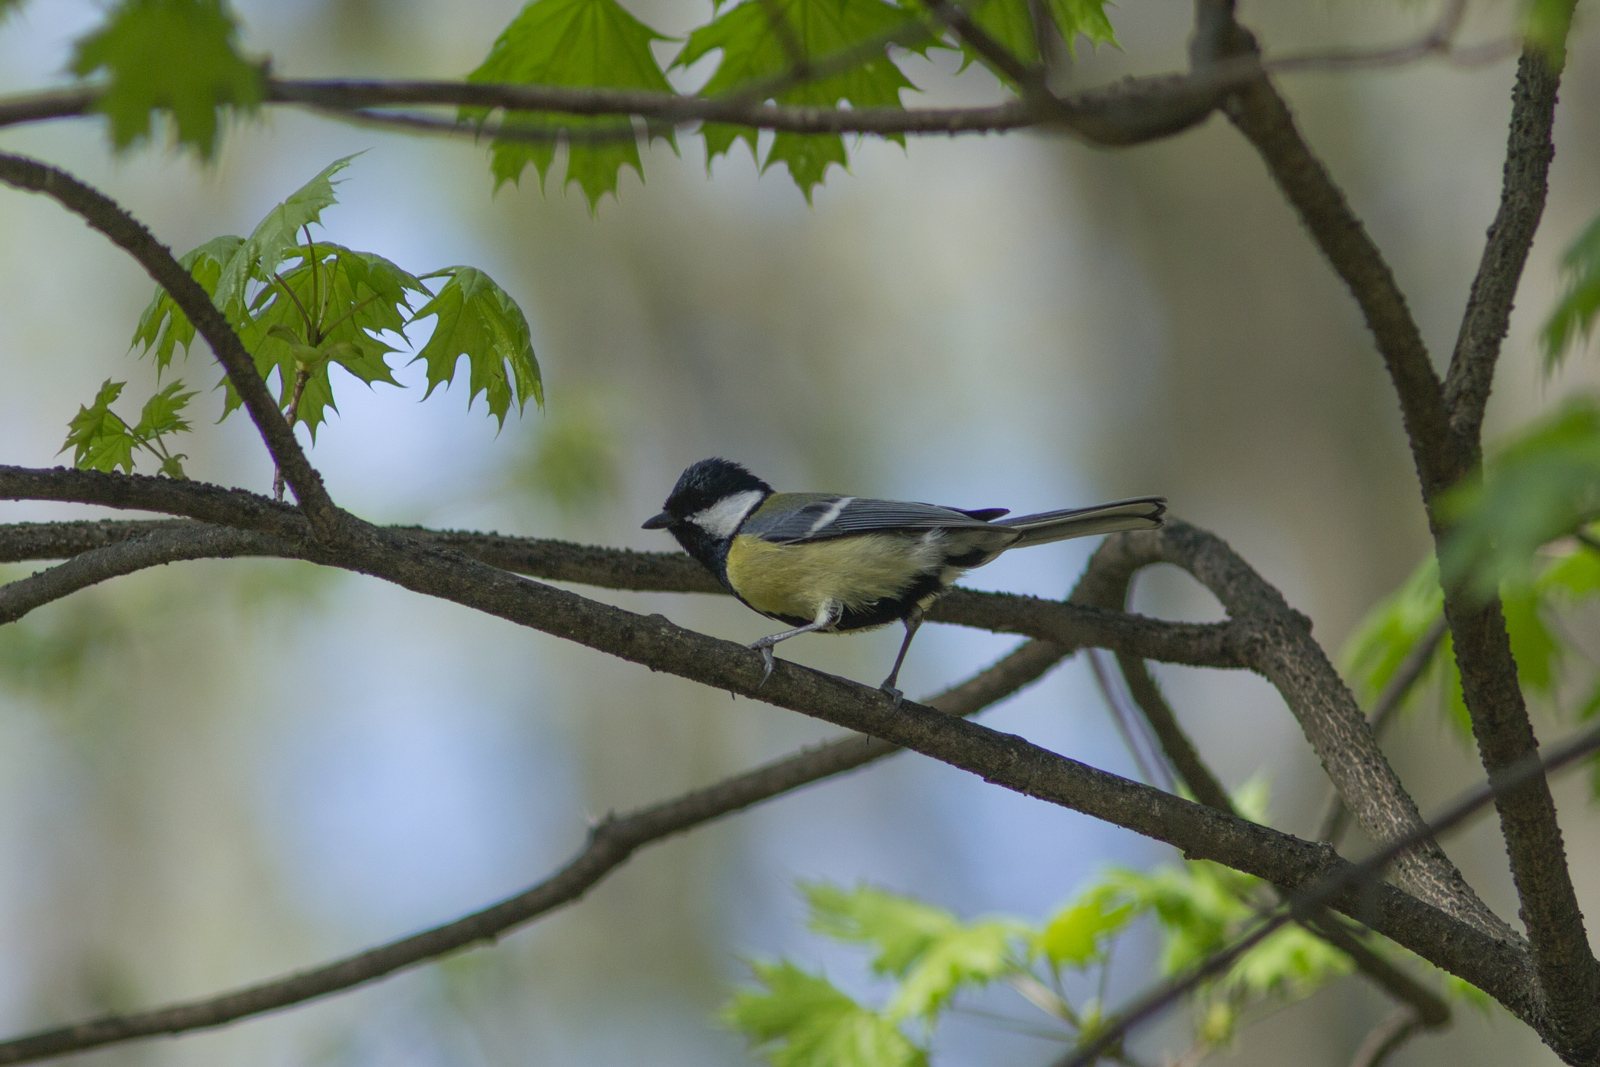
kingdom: Animalia
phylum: Chordata
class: Aves
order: Passeriformes
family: Paridae
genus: Parus
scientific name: Parus major
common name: Great tit
